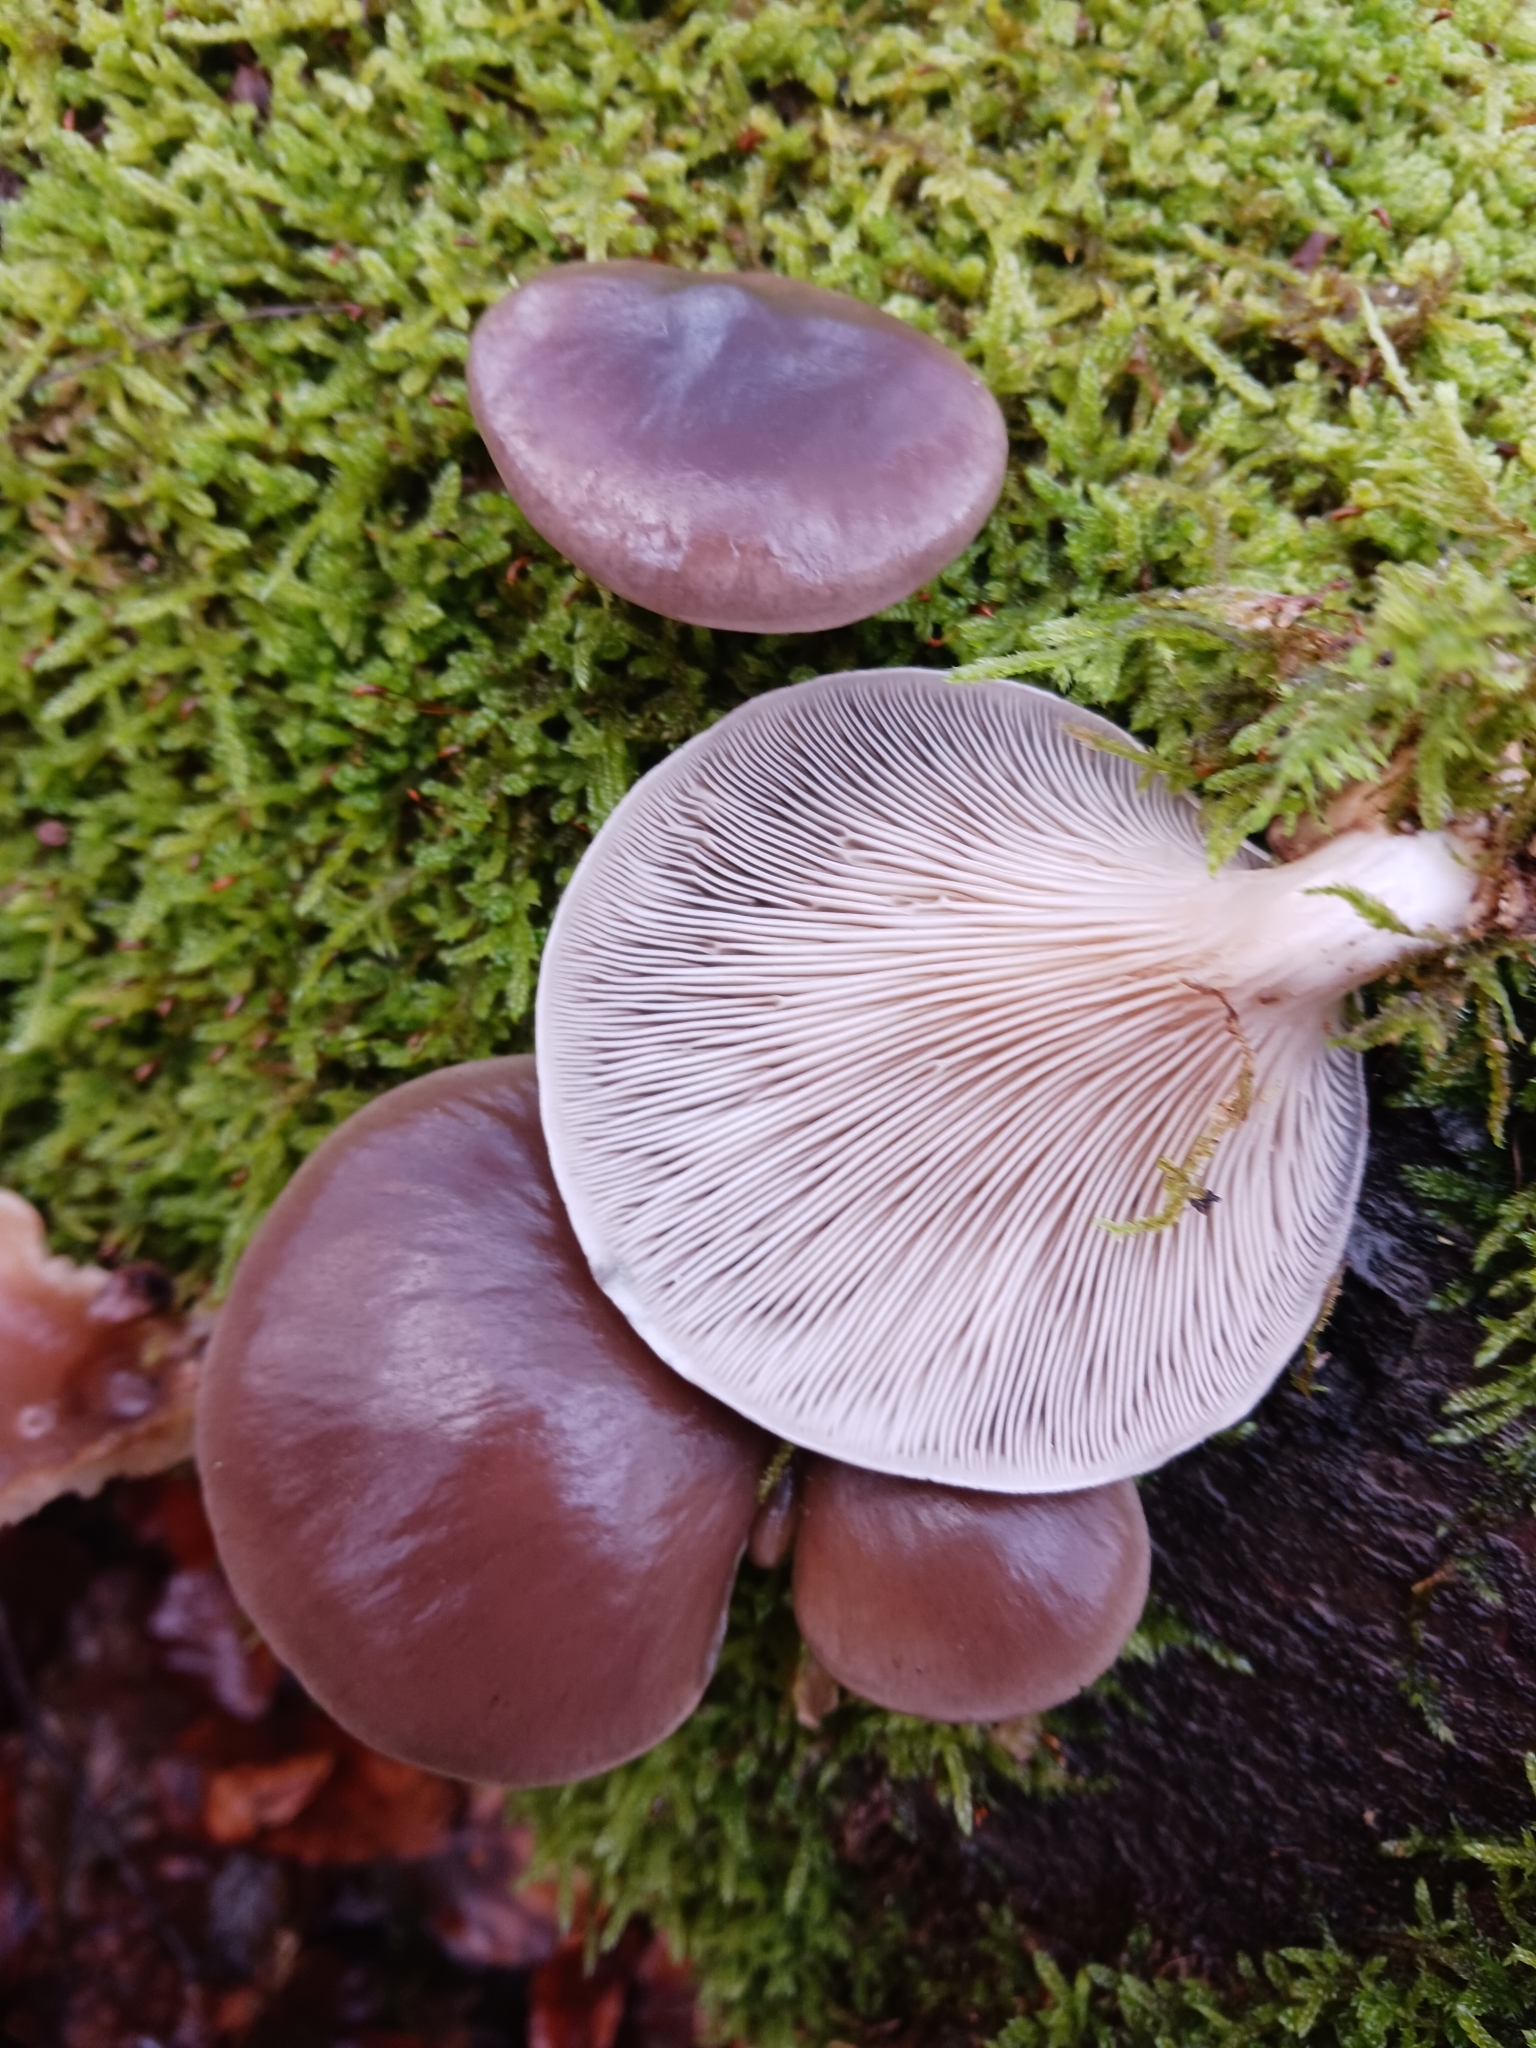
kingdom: Fungi
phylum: Basidiomycota
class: Agaricomycetes
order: Agaricales
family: Pleurotaceae
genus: Pleurotus
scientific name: Pleurotus ostreatus
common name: Oyster mushroom
